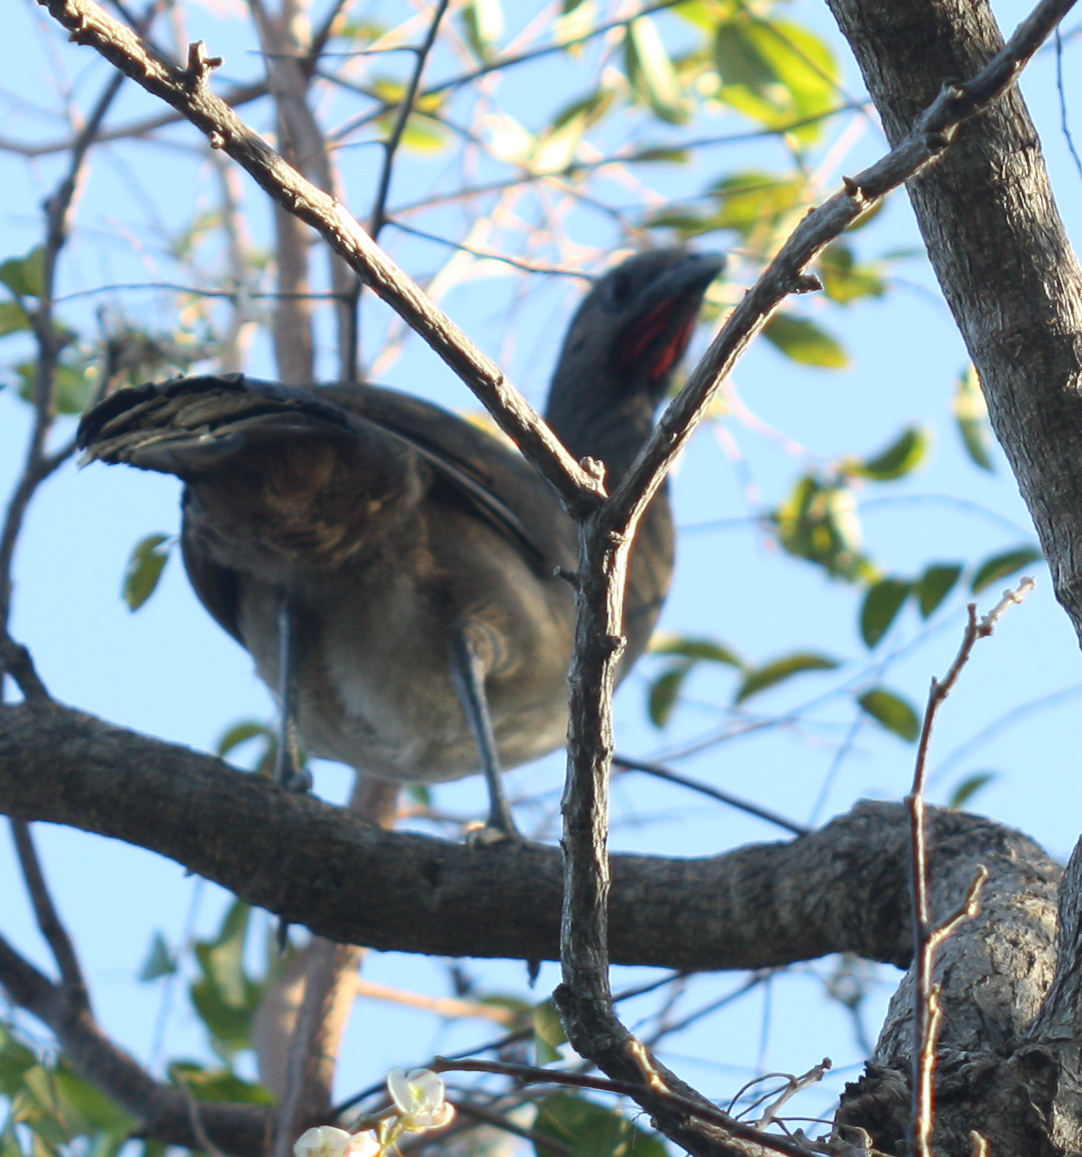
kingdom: Animalia
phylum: Chordata
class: Aves
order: Galliformes
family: Cracidae
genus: Ortalis
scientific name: Ortalis vetula
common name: Plain chachalaca
